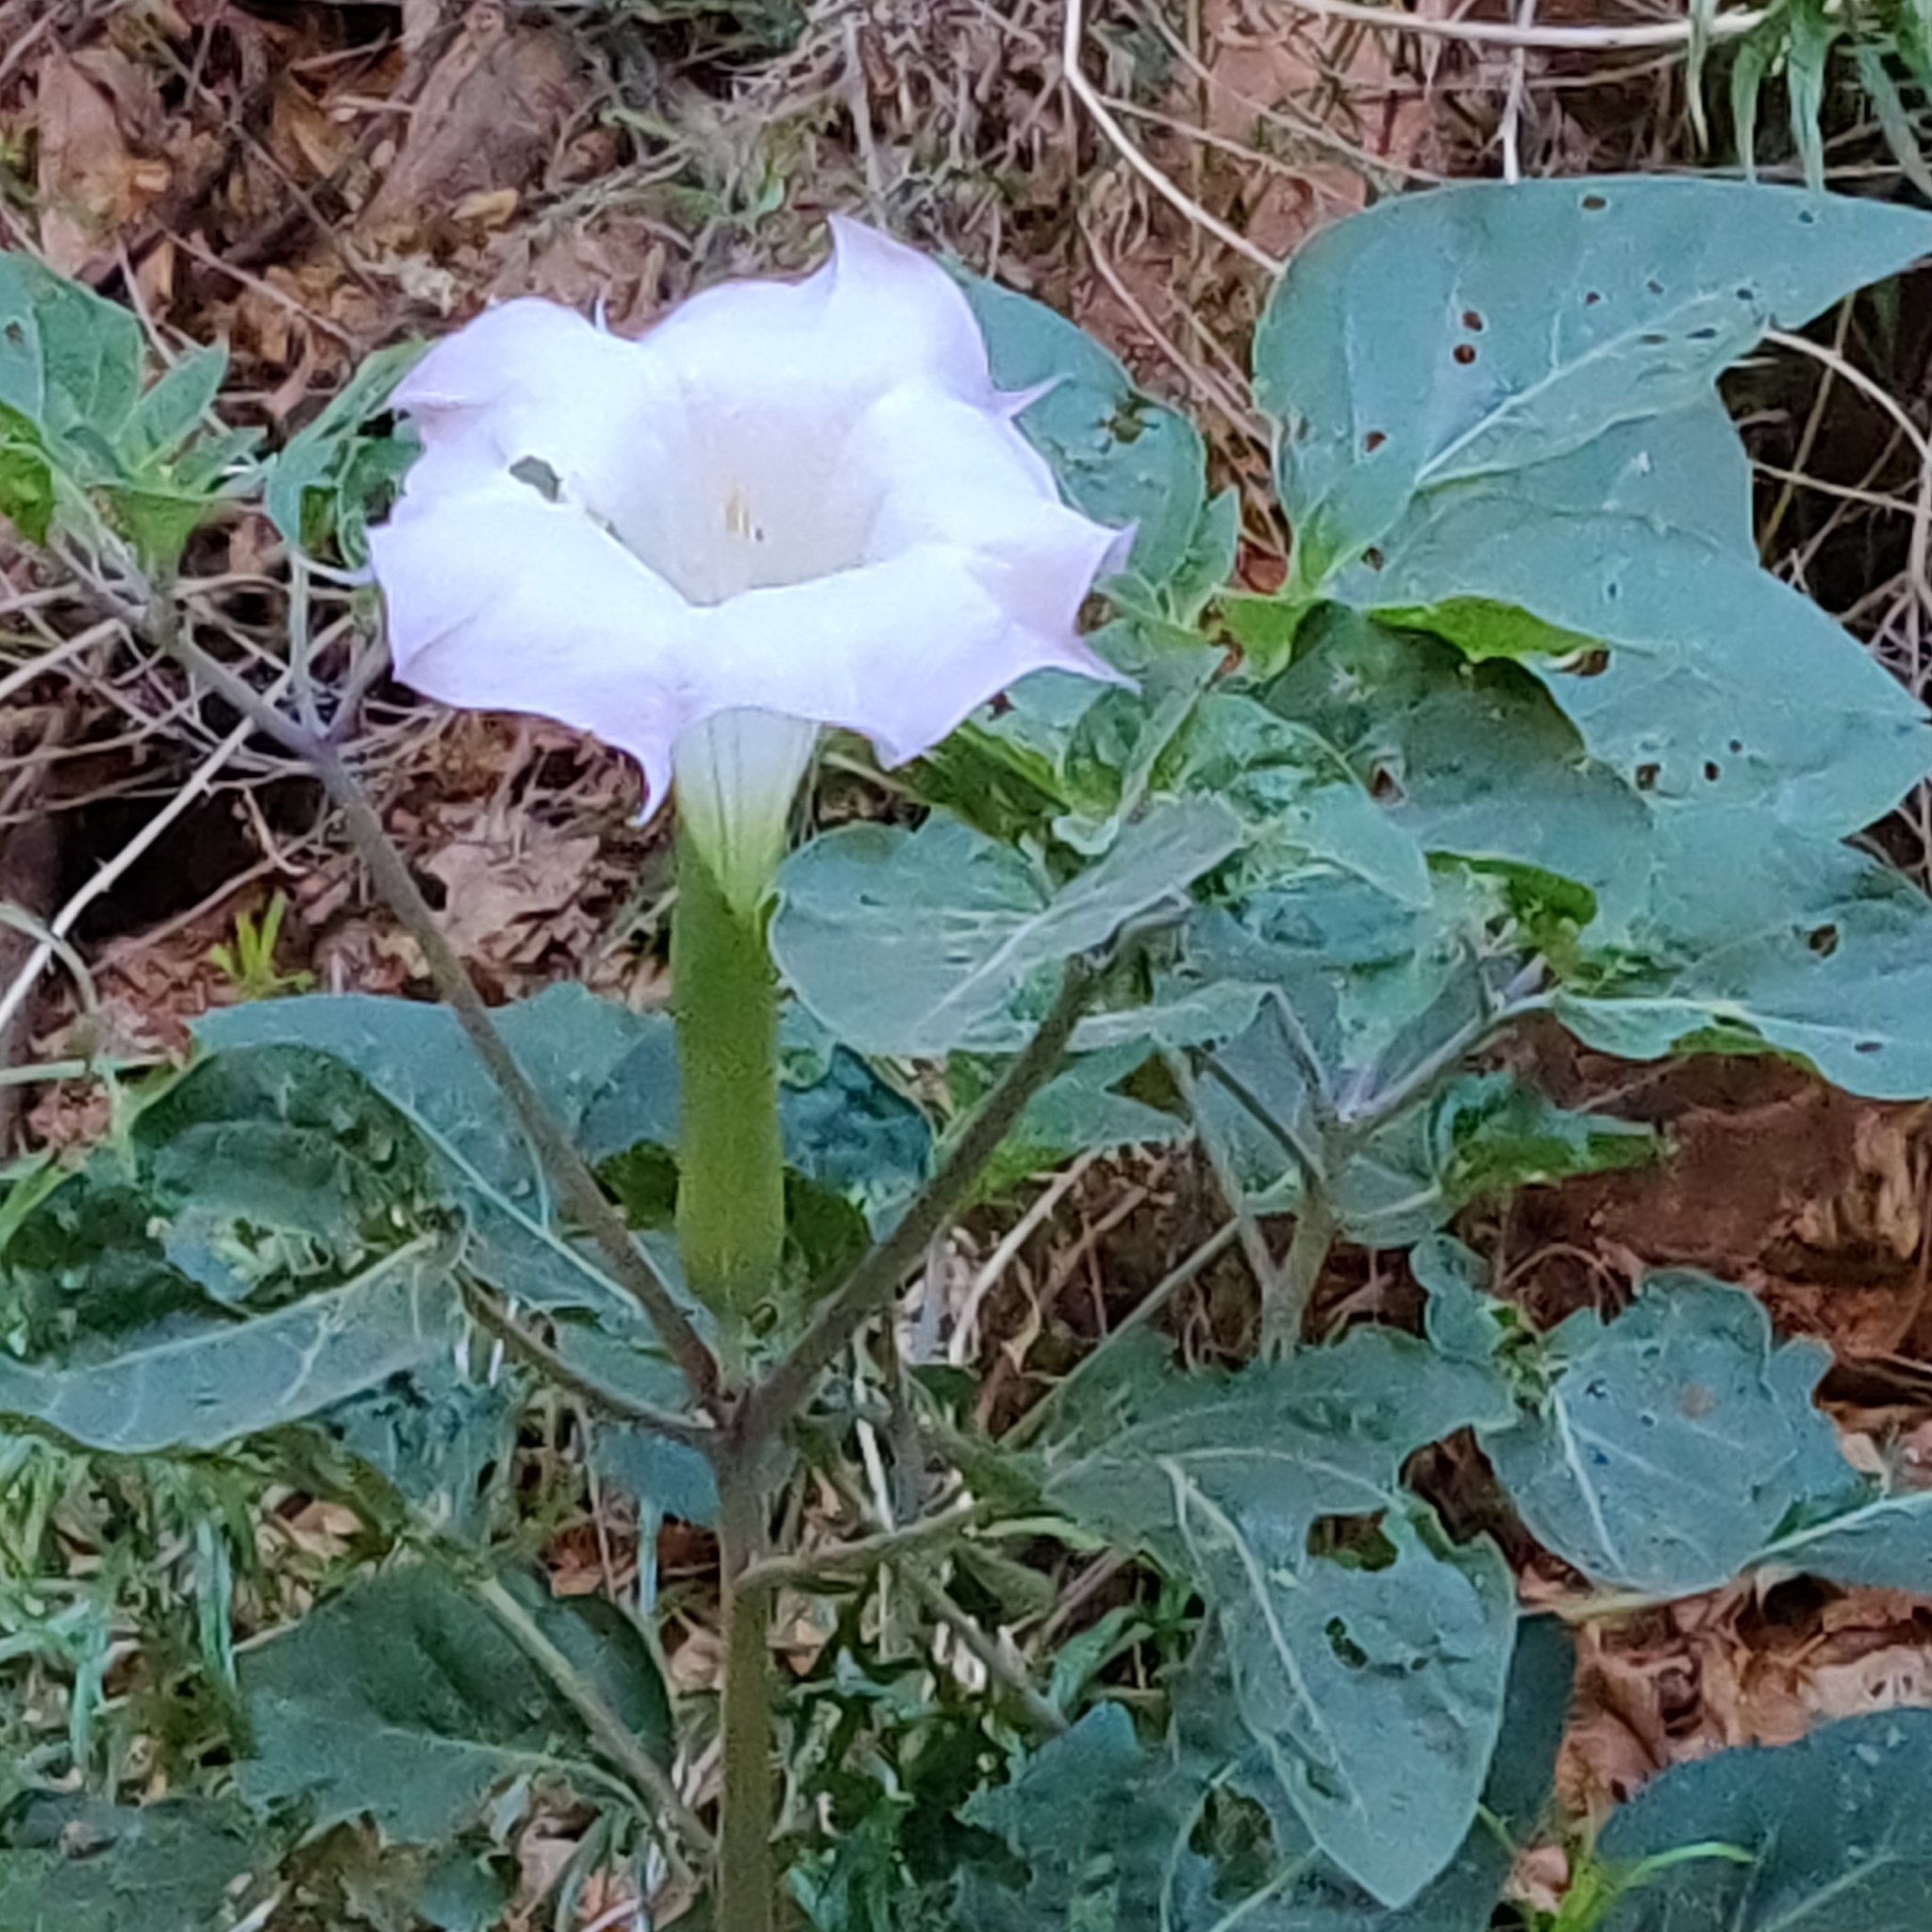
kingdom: Plantae
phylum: Tracheophyta
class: Magnoliopsida
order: Solanales
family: Solanaceae
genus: Datura
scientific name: Datura wrightii
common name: Sacred thorn-apple
